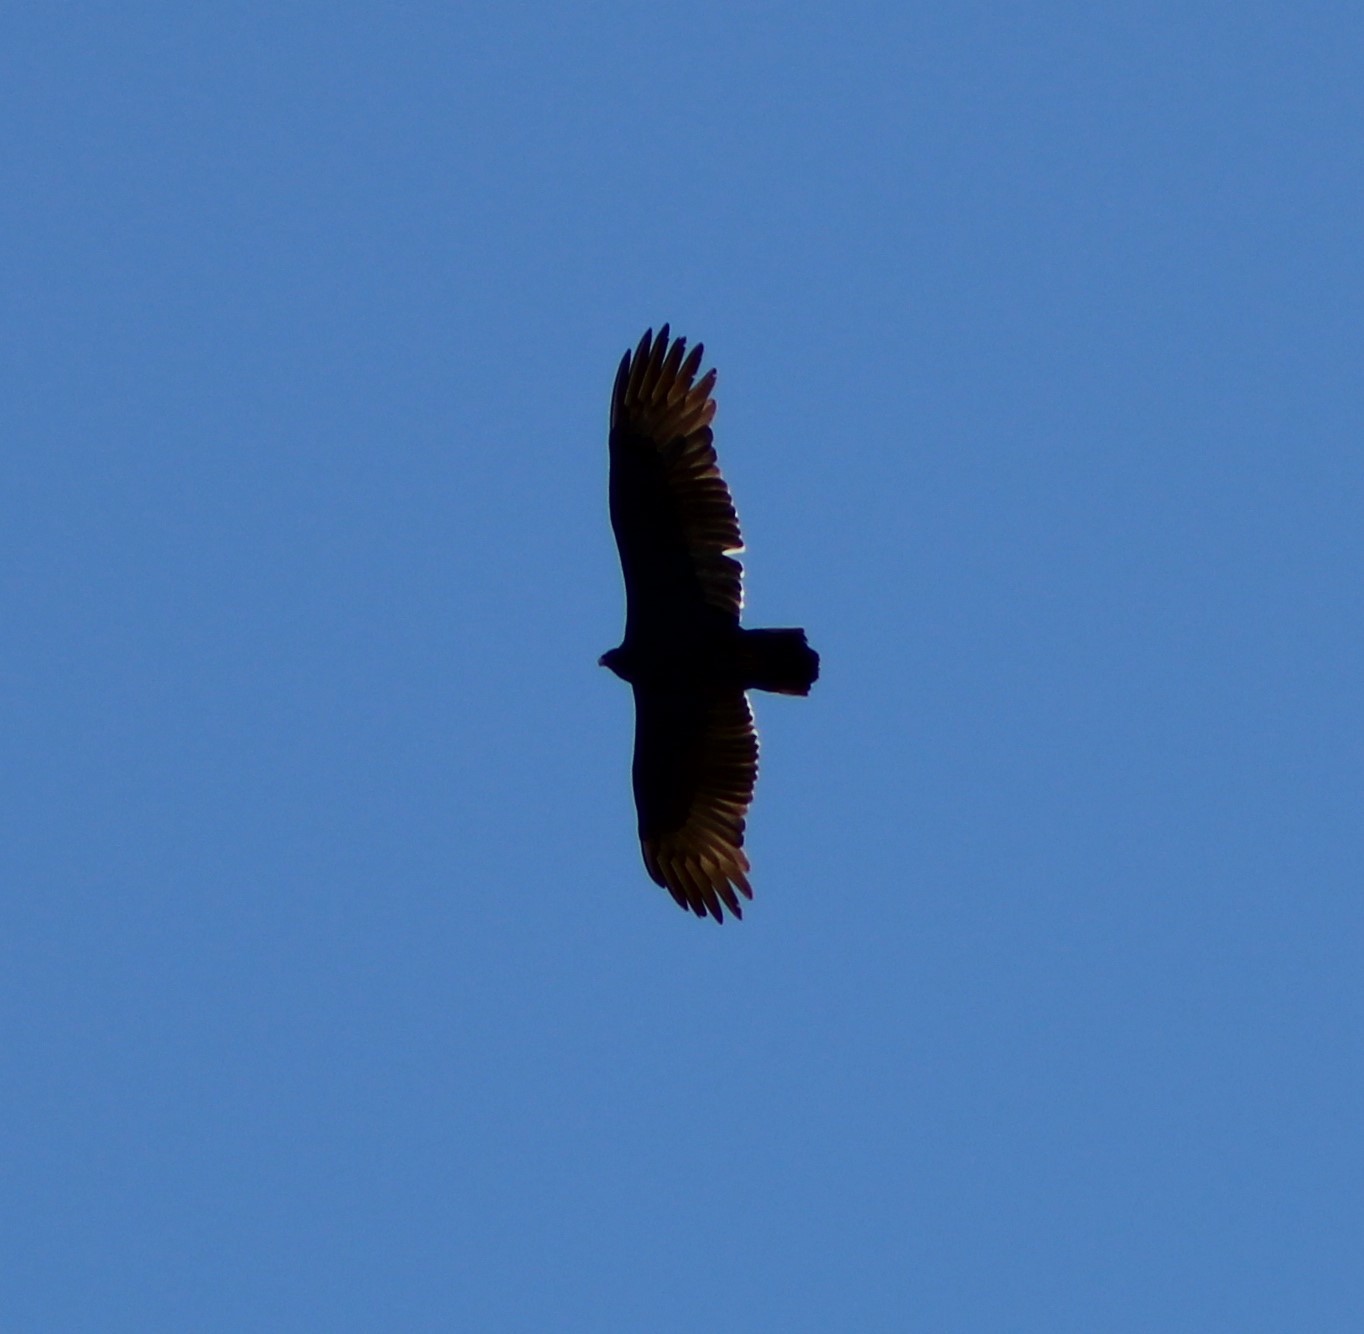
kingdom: Animalia
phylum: Chordata
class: Aves
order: Accipitriformes
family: Cathartidae
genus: Cathartes
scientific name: Cathartes aura
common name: Turkey vulture
